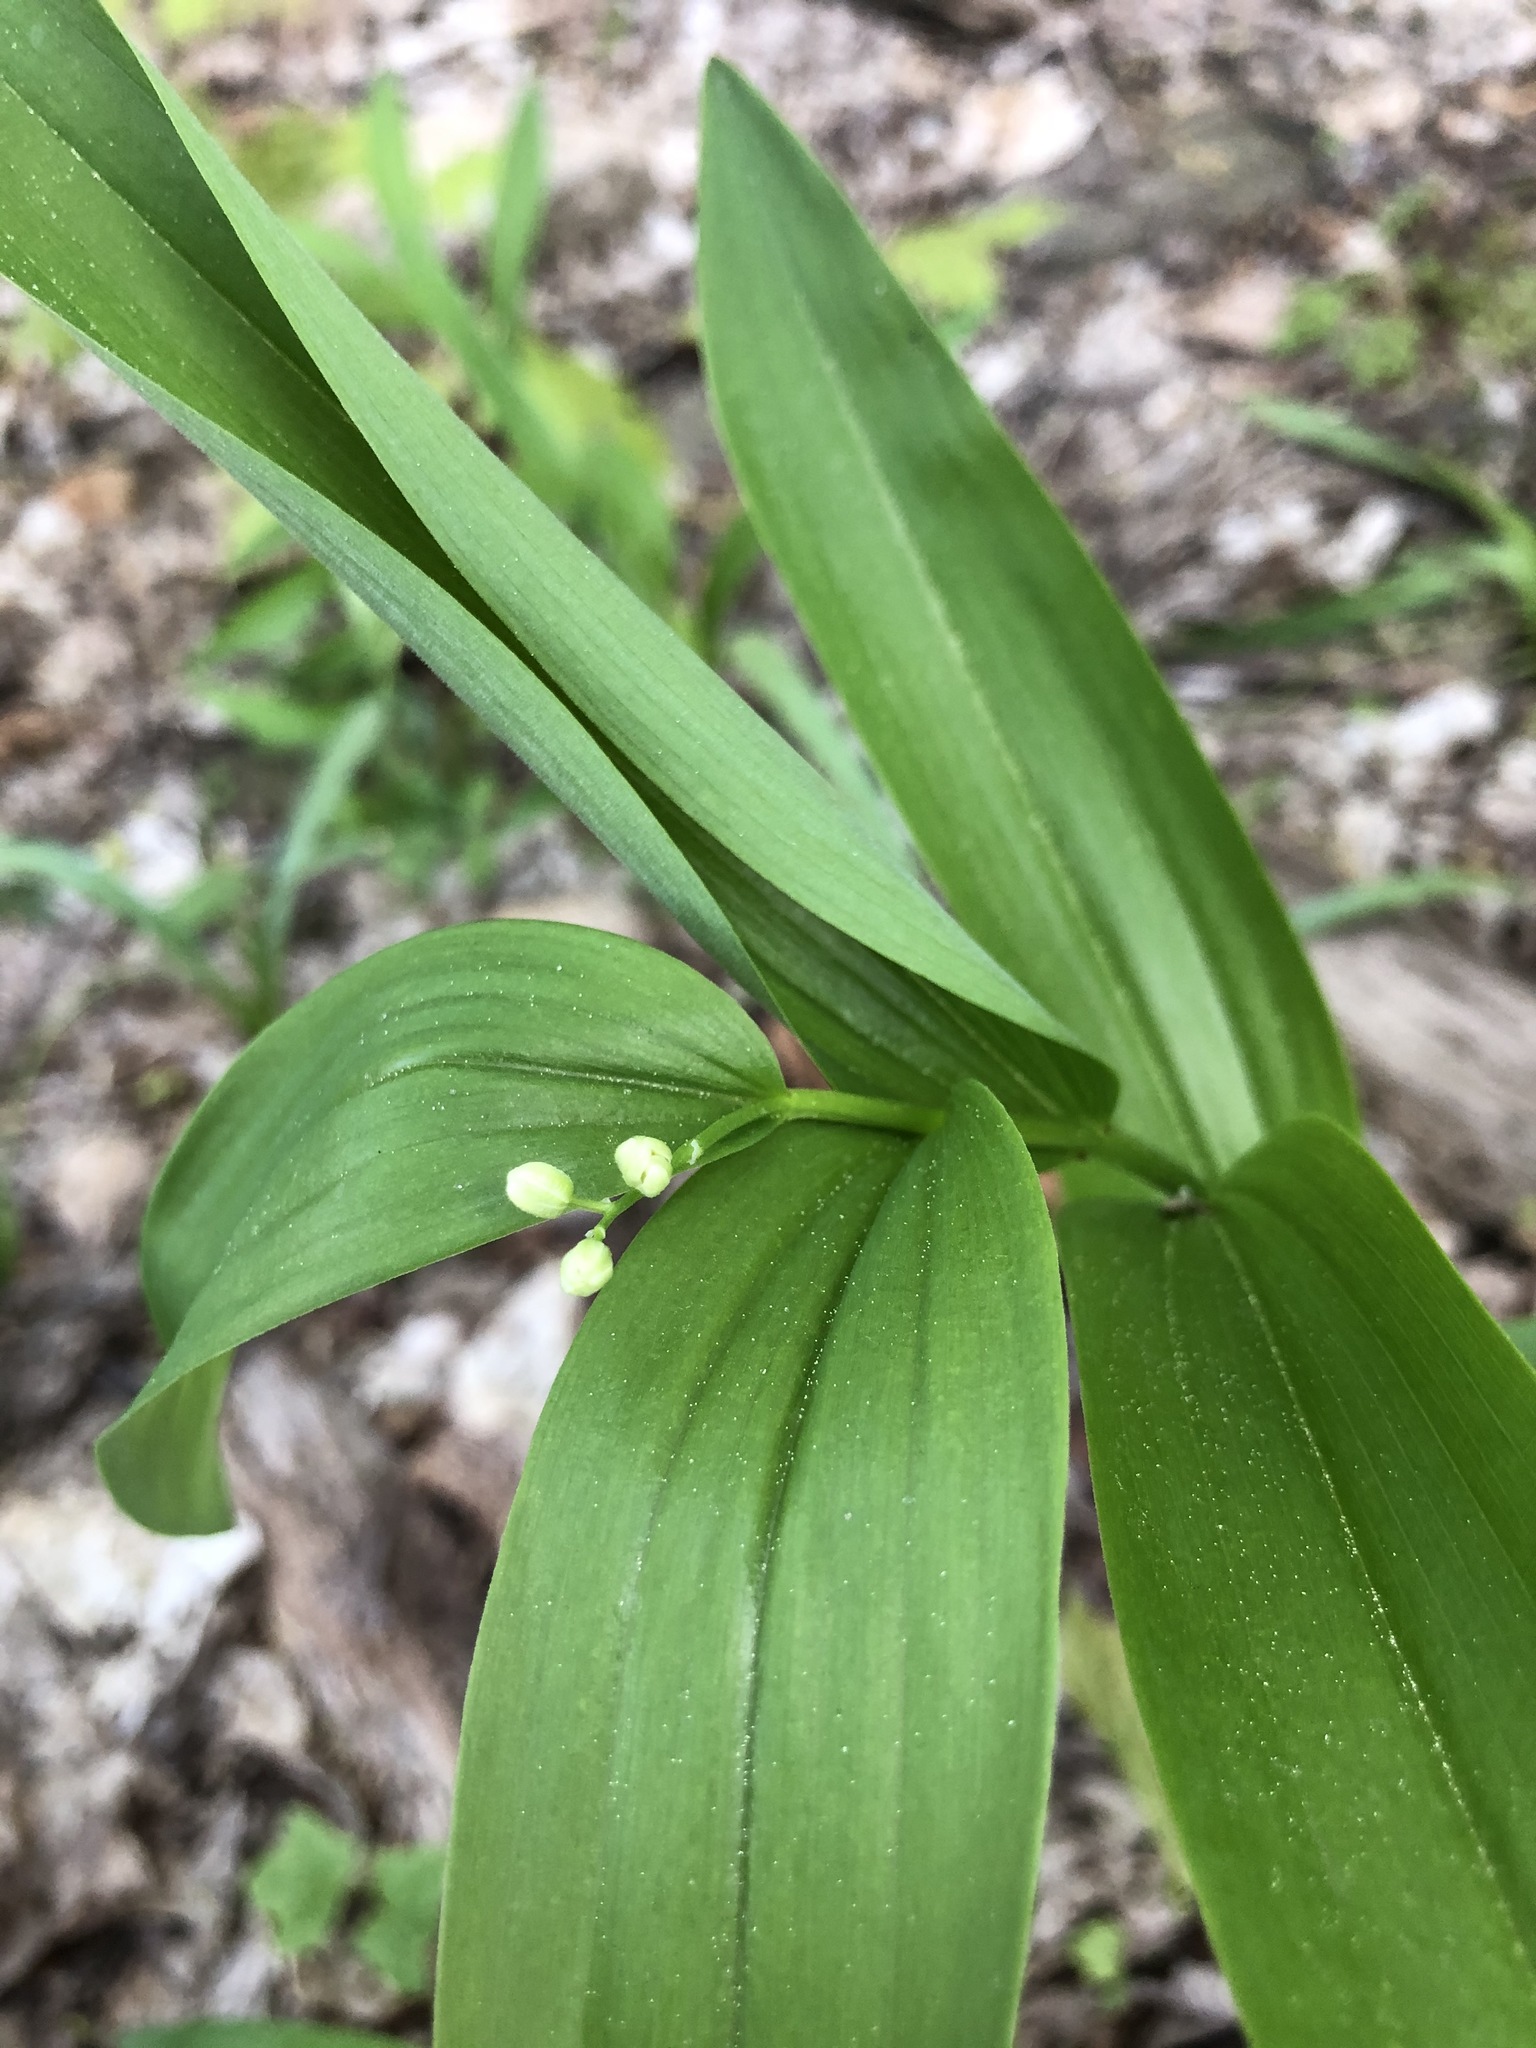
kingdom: Plantae
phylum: Tracheophyta
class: Liliopsida
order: Asparagales
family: Asparagaceae
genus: Maianthemum
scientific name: Maianthemum stellatum
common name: Little false solomon's seal
